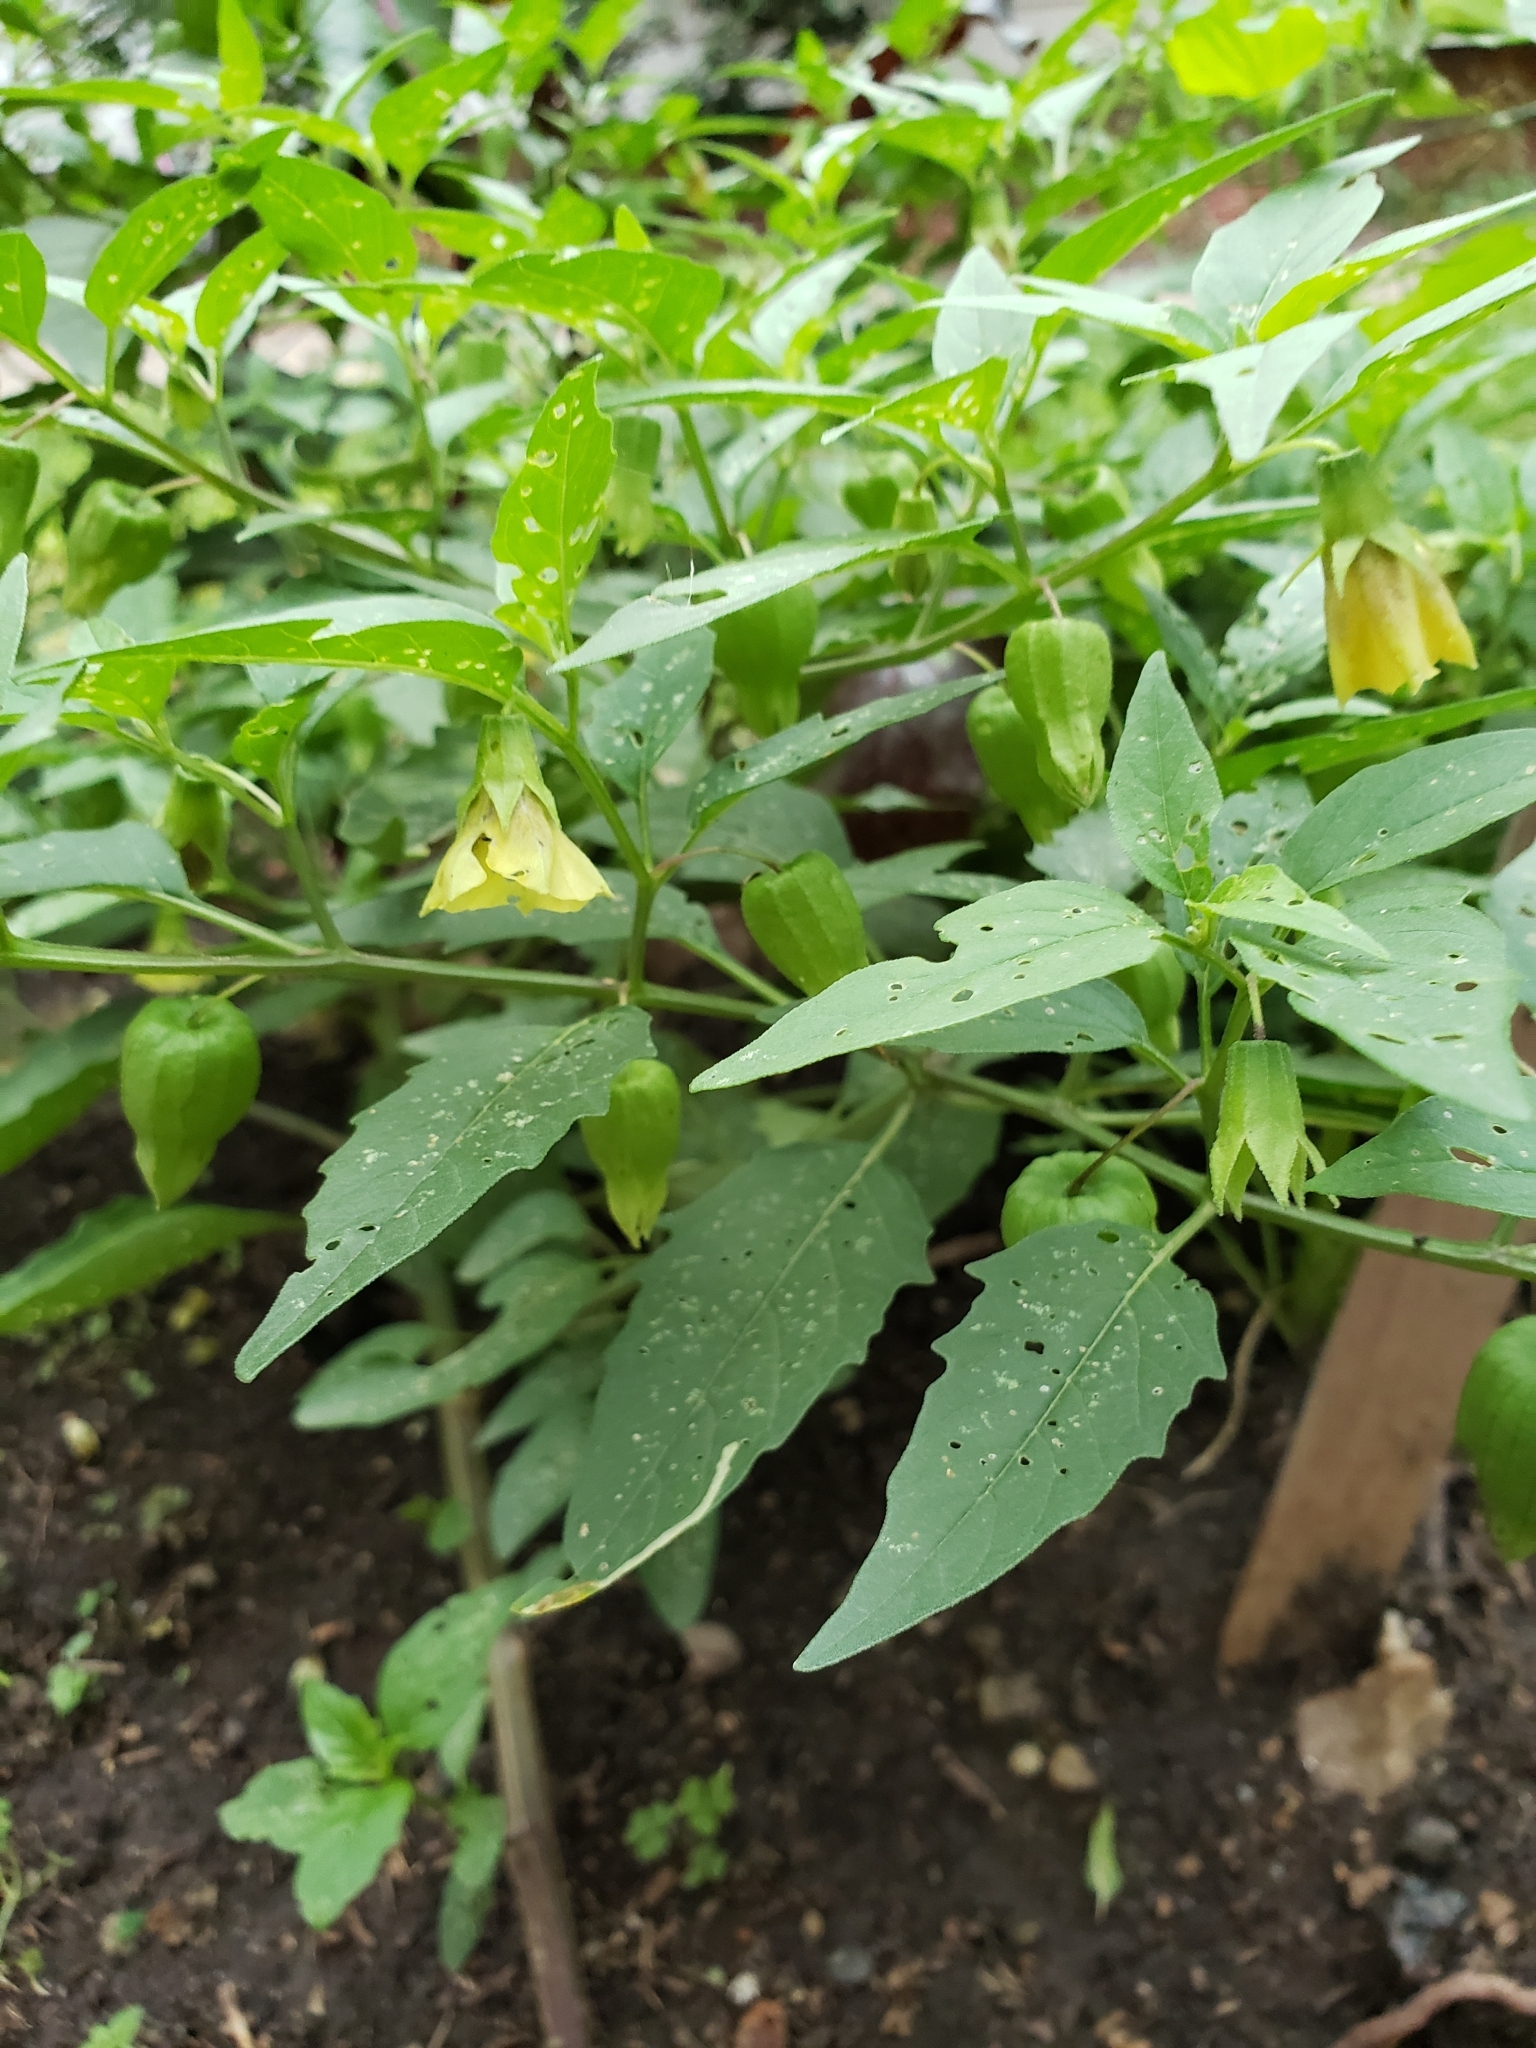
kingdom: Plantae
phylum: Tracheophyta
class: Magnoliopsida
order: Solanales
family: Solanaceae
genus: Physalis
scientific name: Physalis longifolia
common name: Common ground-cherry
